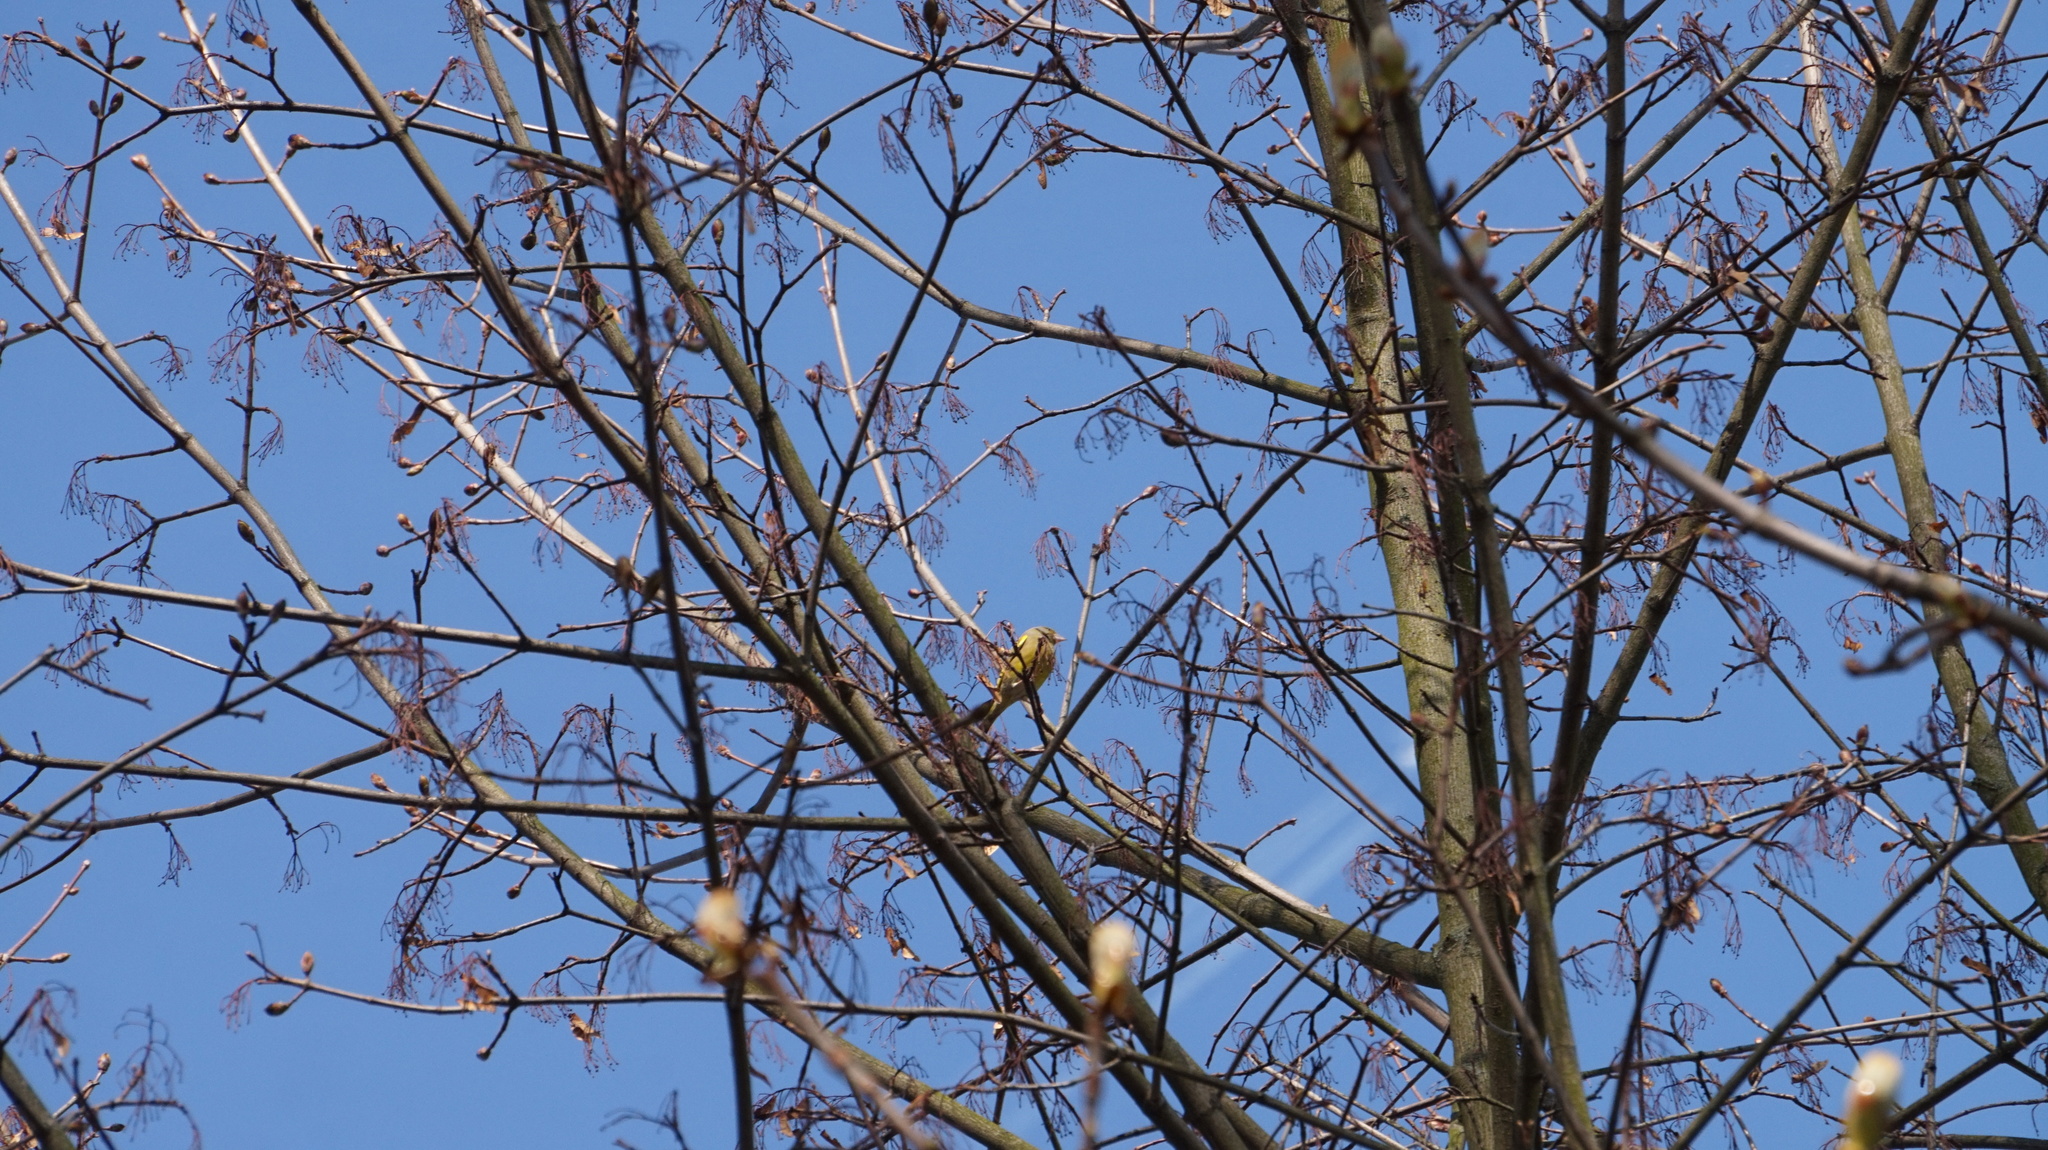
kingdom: Plantae
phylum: Tracheophyta
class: Liliopsida
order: Poales
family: Poaceae
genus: Chloris
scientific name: Chloris chloris
